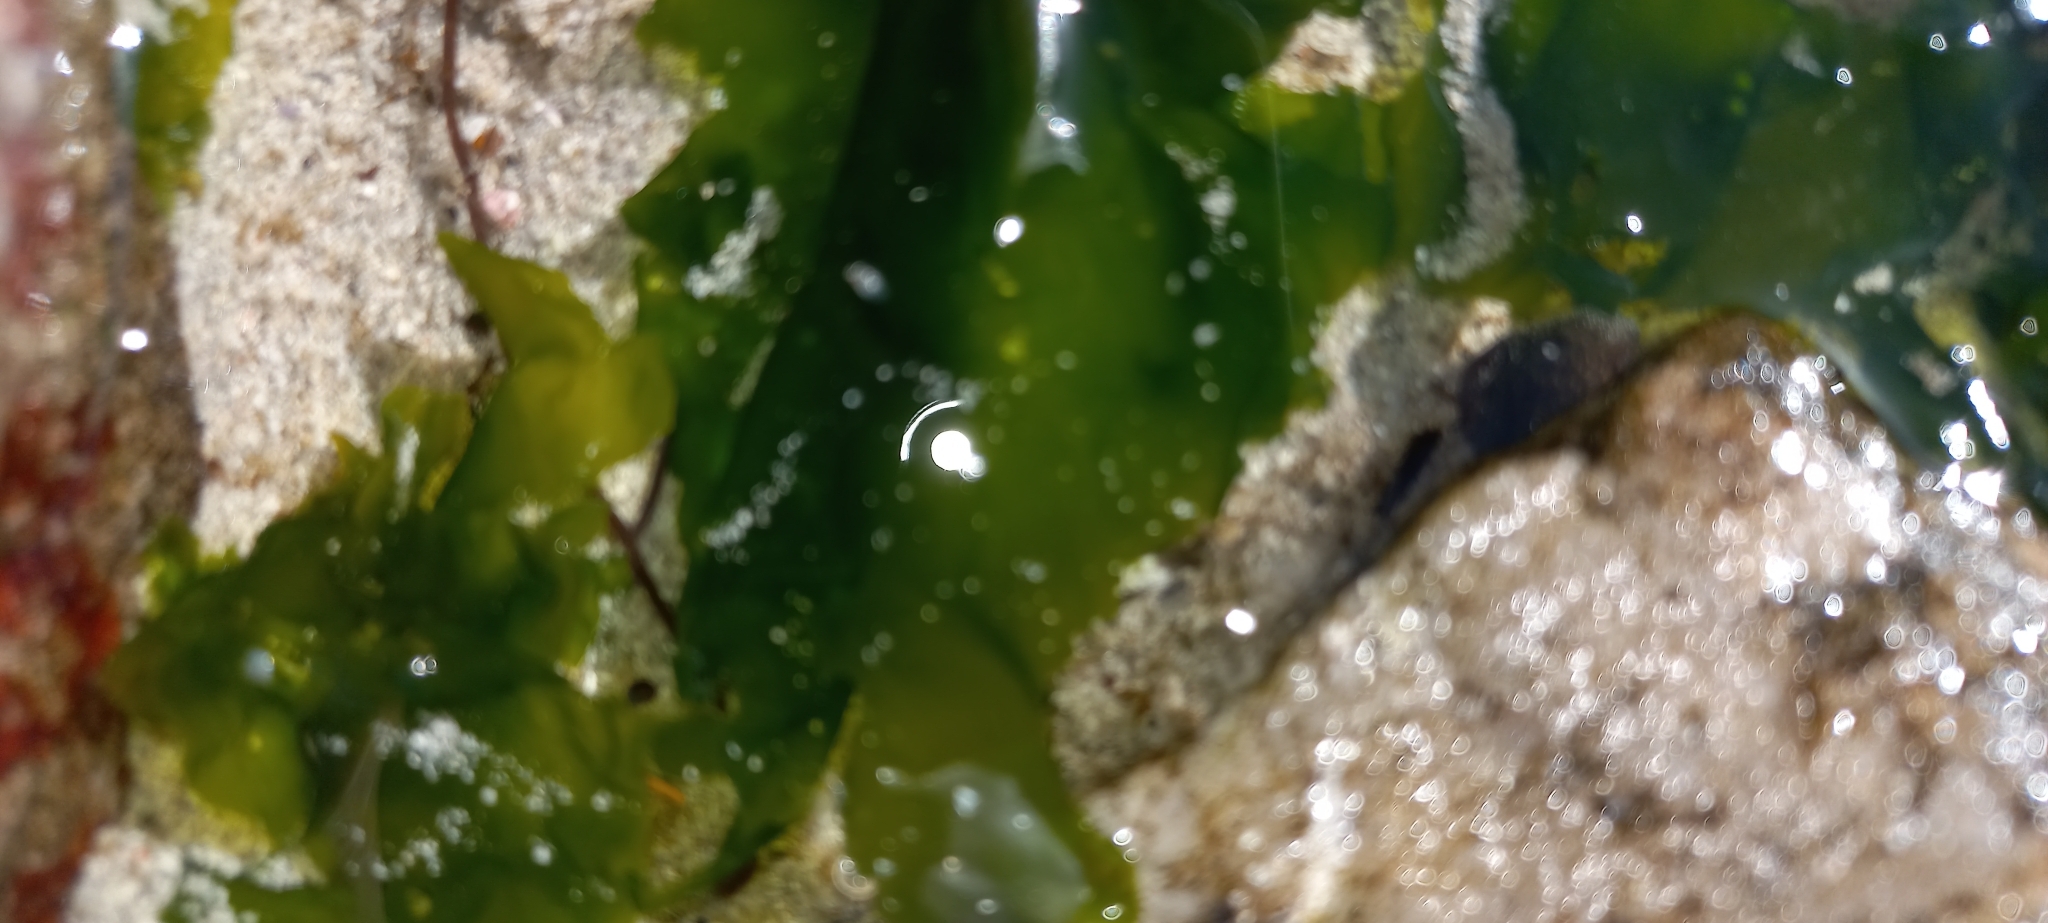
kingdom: Plantae
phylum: Chlorophyta
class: Ulvophyceae
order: Ulvales
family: Ulvaceae
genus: Ulva
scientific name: Ulva lactuca
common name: Sea lettuce
